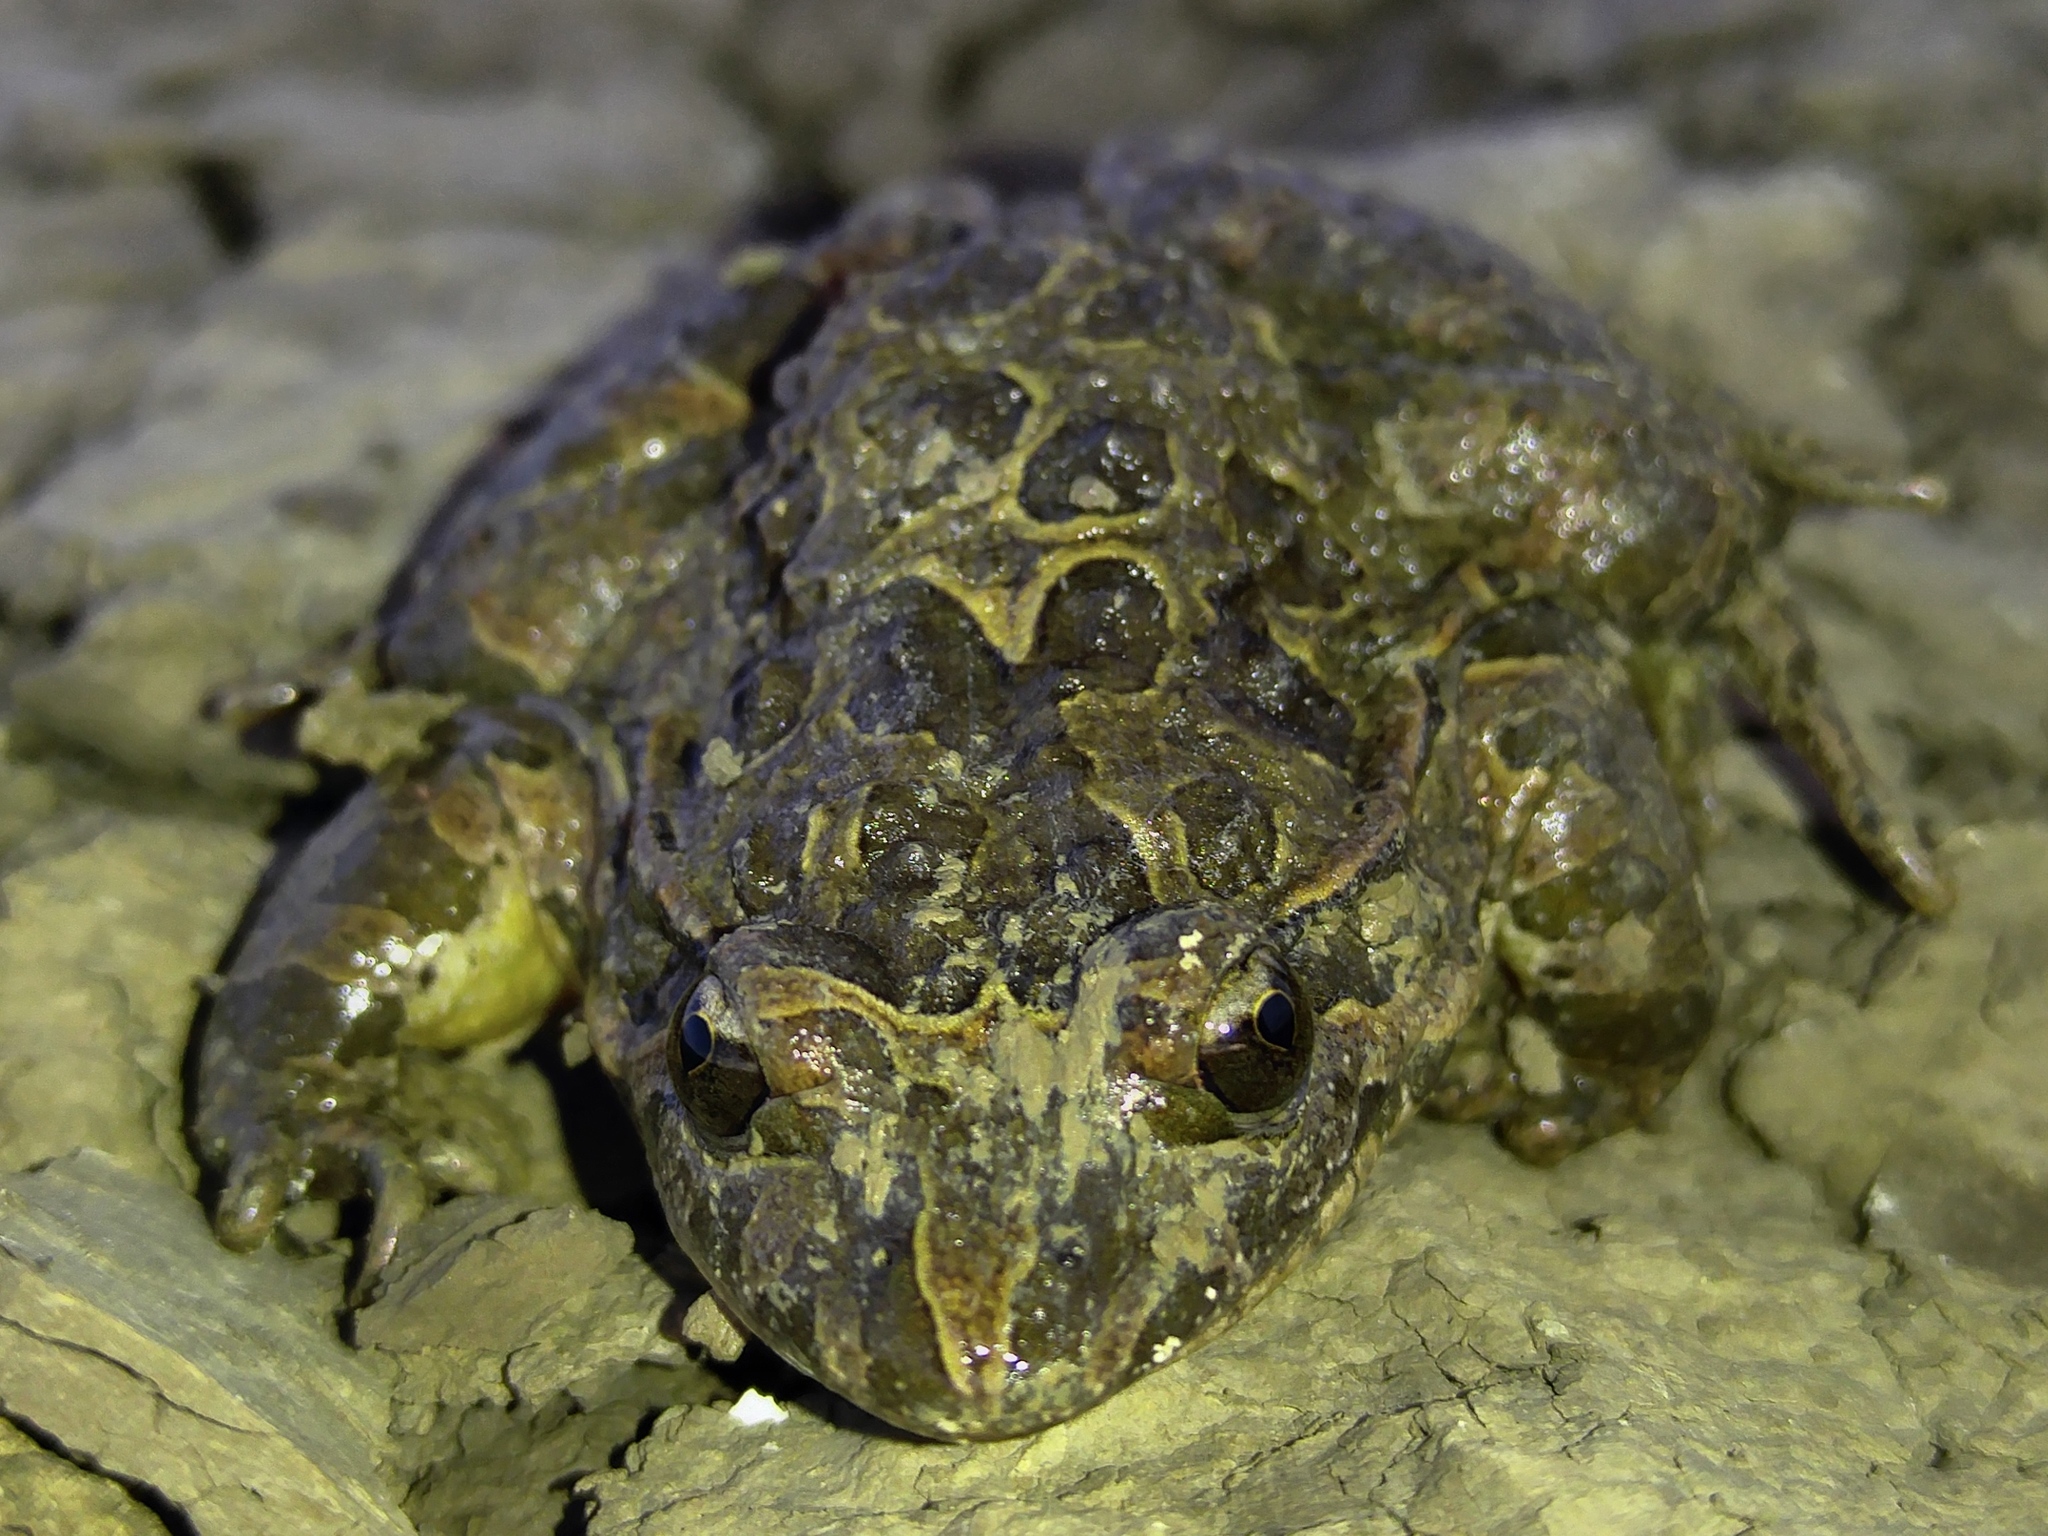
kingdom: Animalia
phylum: Chordata
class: Amphibia
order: Anura
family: Alytidae
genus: Discoglossus
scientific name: Discoglossus pictus
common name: Painted frog
